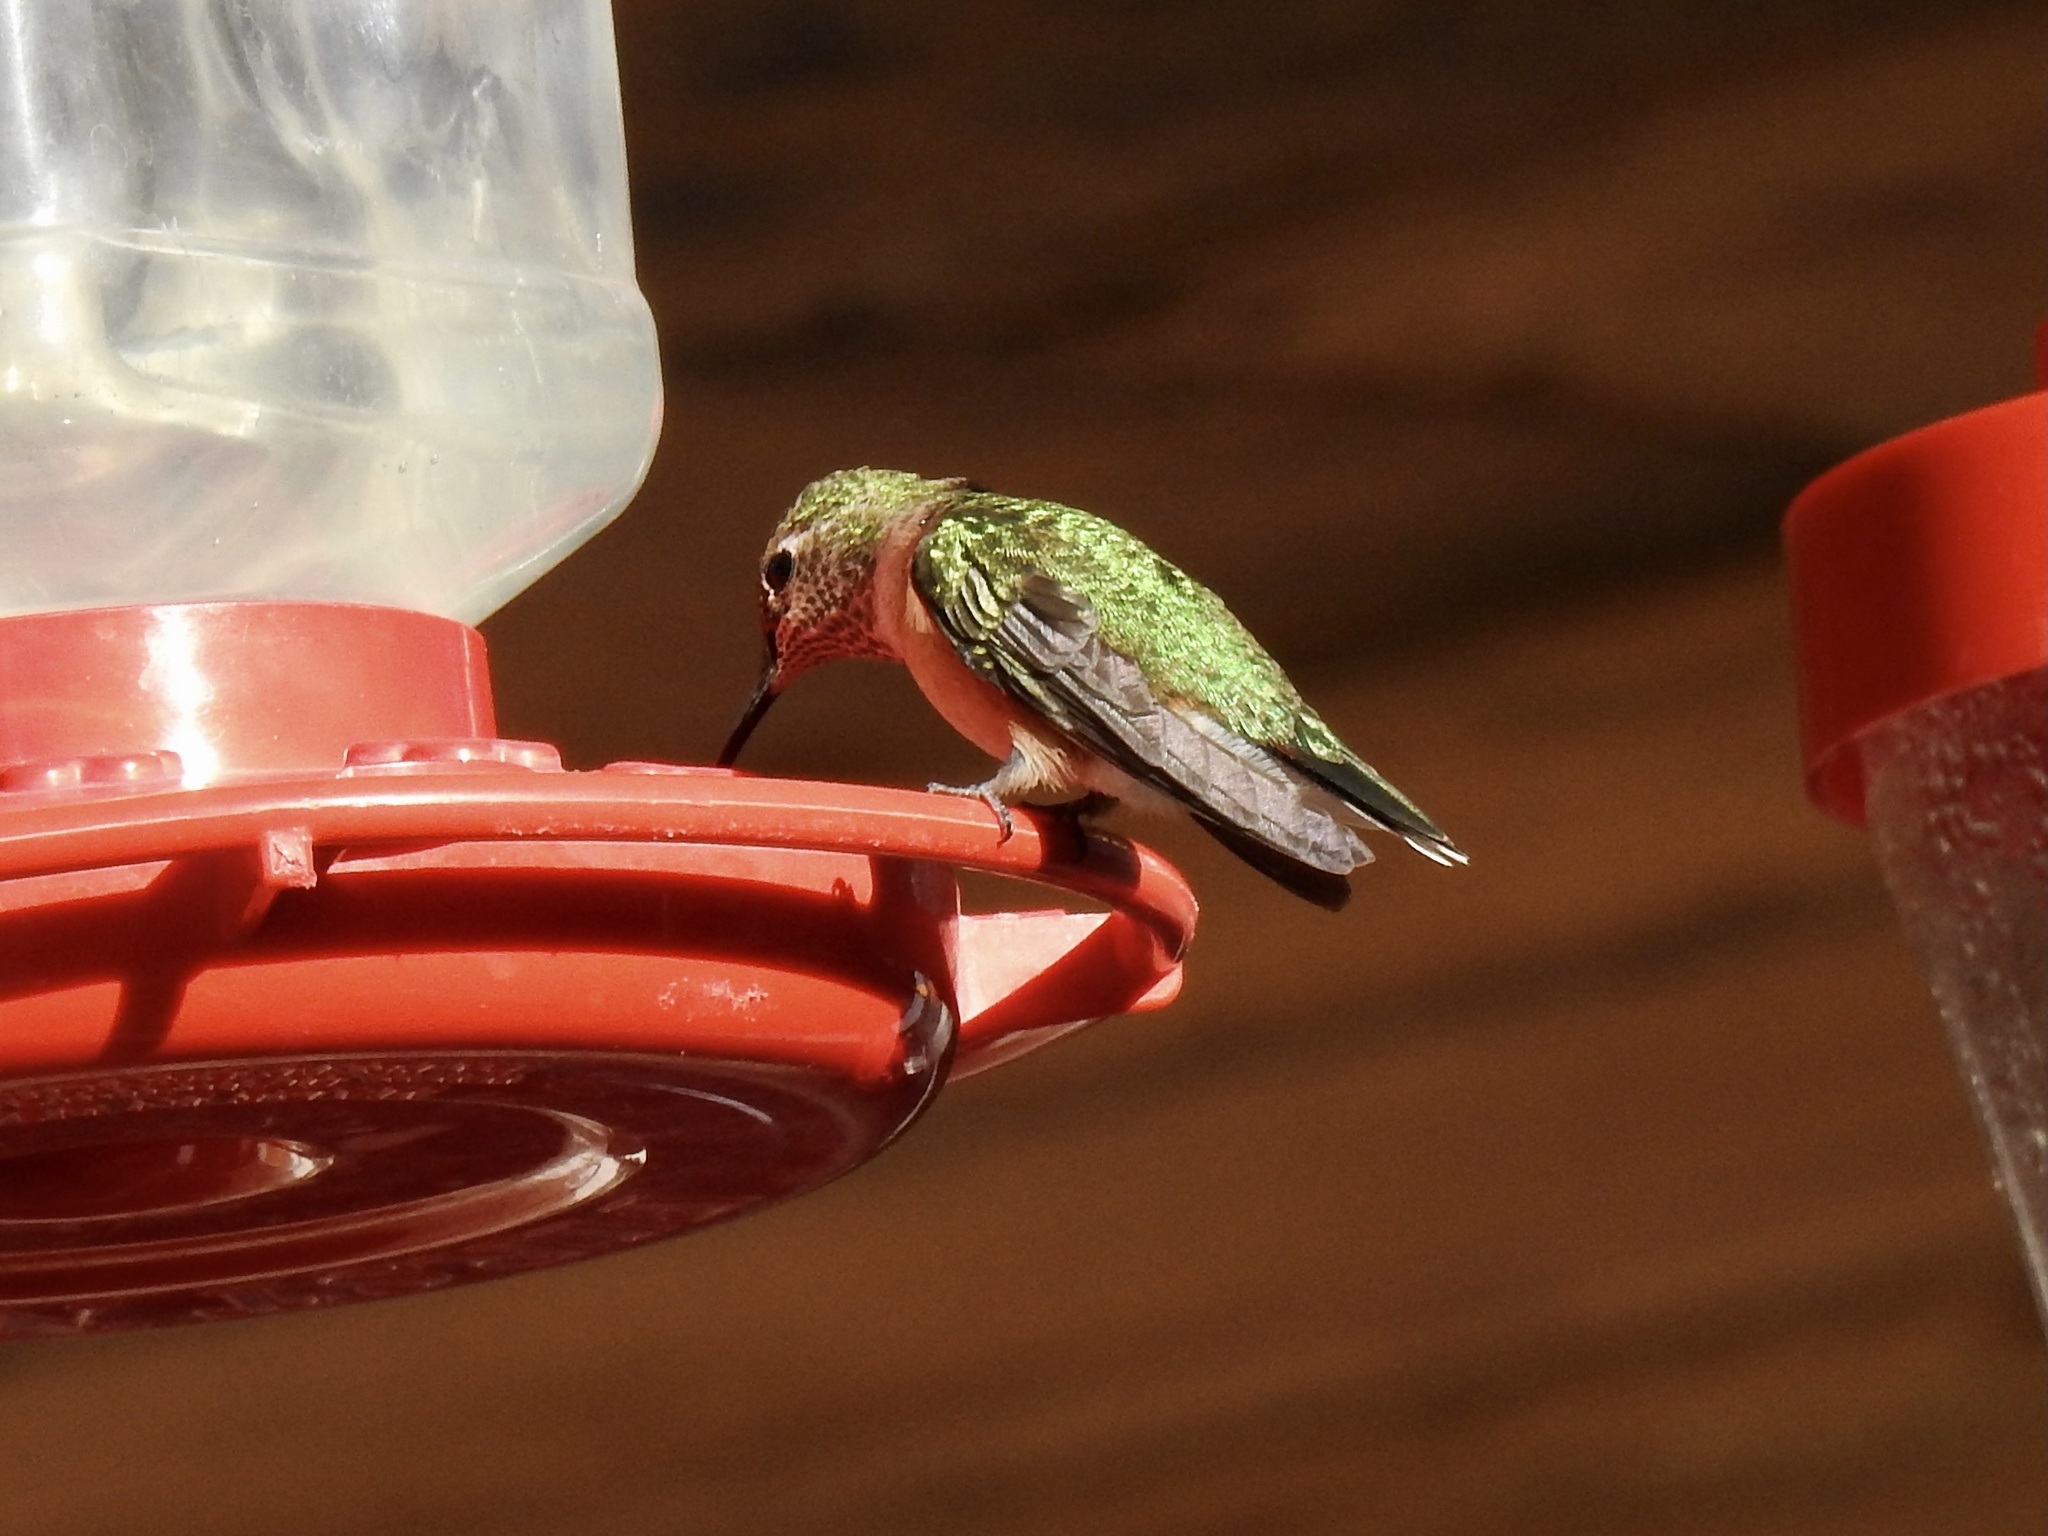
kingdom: Animalia
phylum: Chordata
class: Aves
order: Apodiformes
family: Trochilidae
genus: Selasphorus
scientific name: Selasphorus platycercus
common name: Broad-tailed hummingbird
